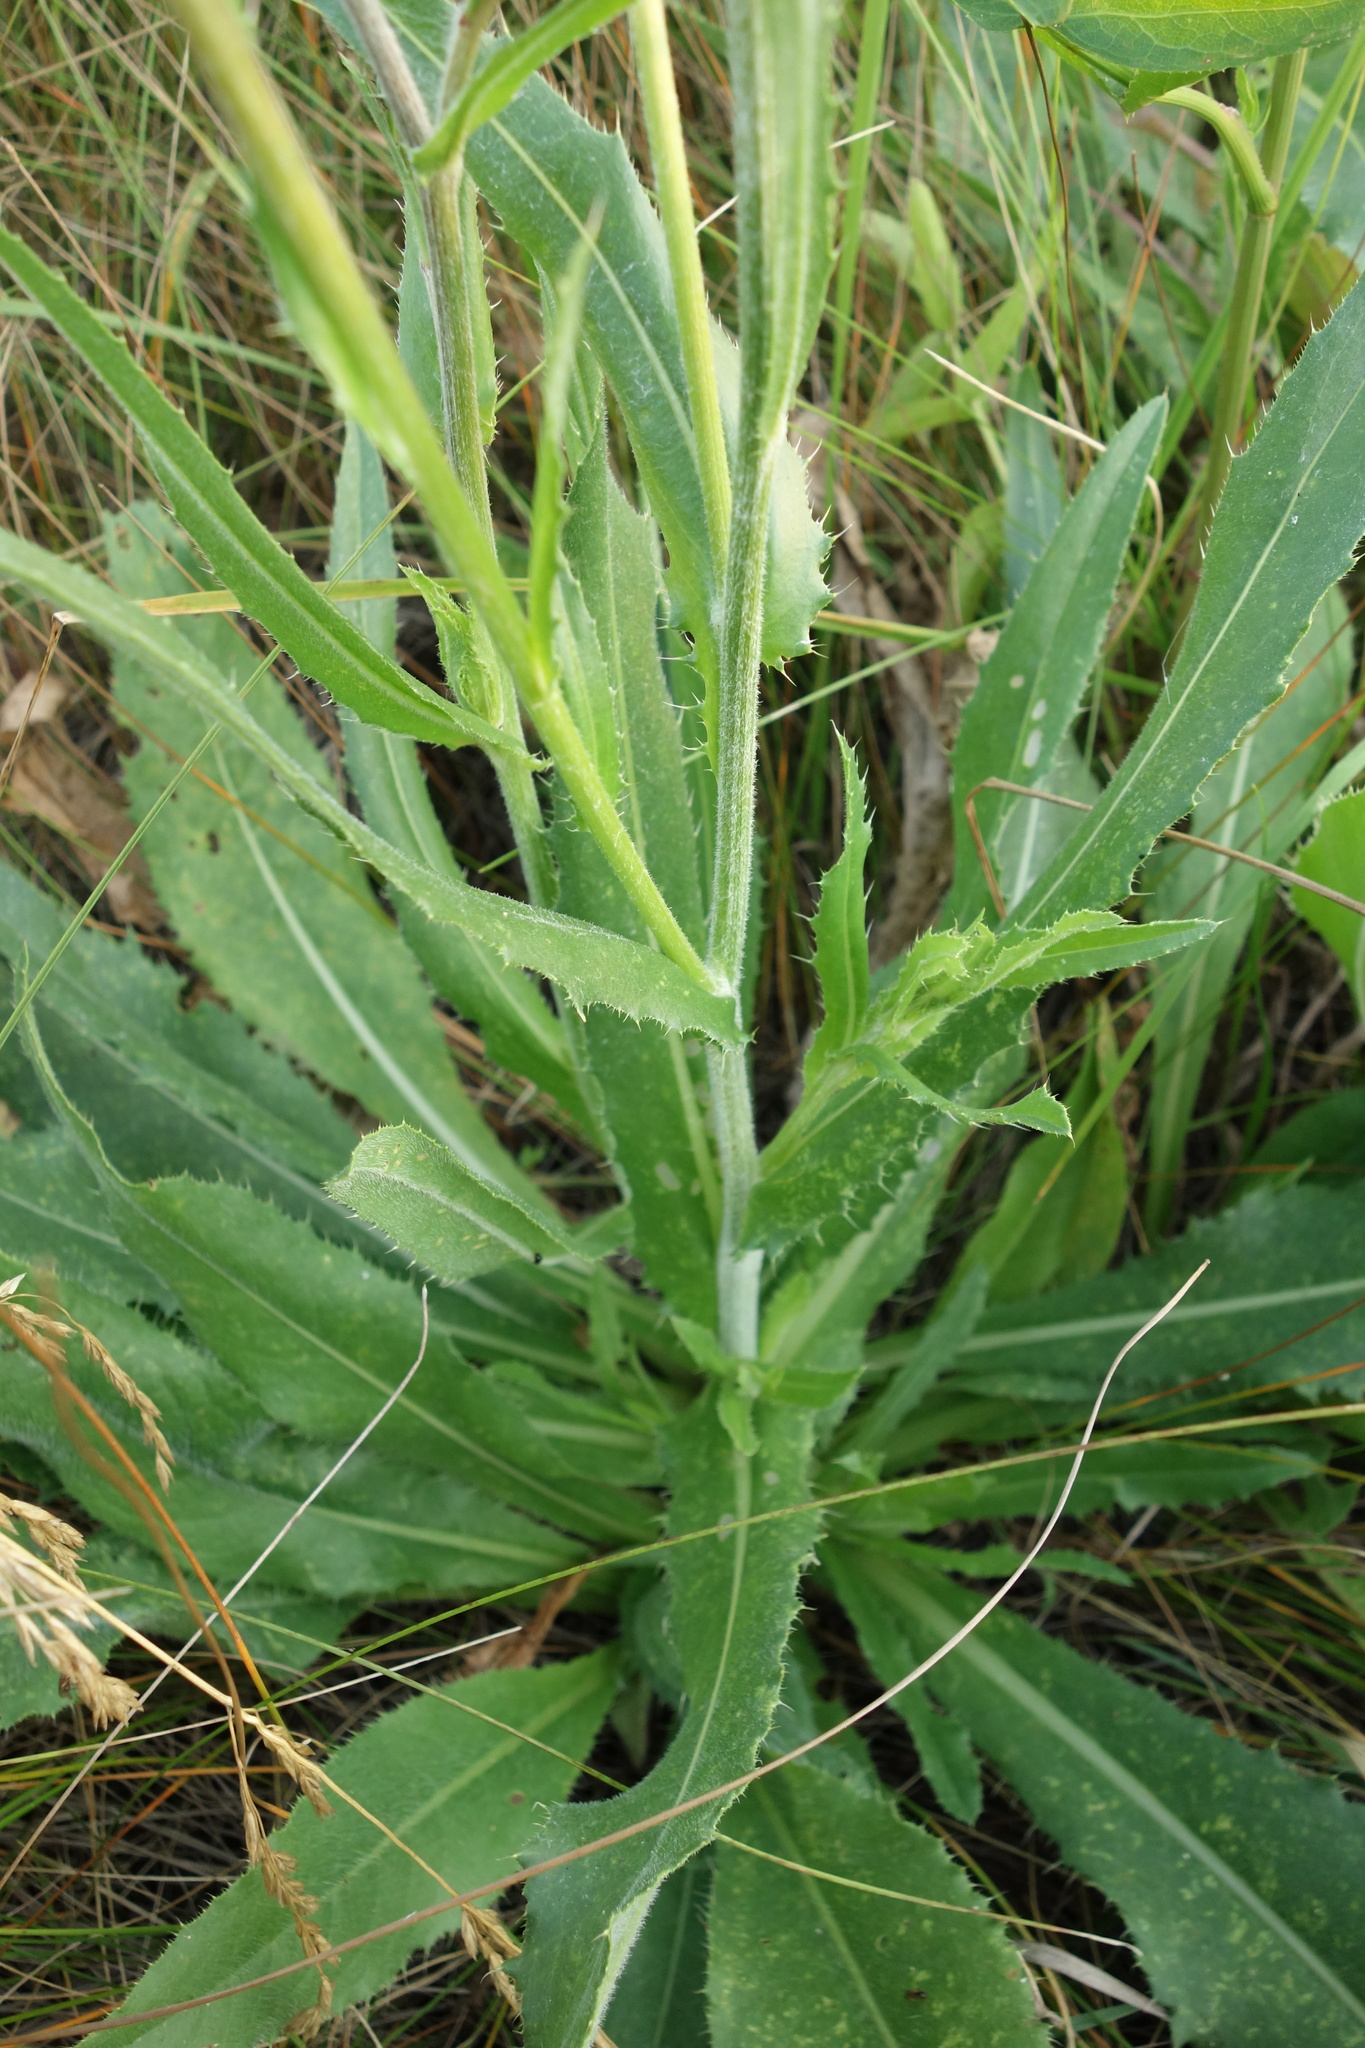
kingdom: Plantae
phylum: Tracheophyta
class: Magnoliopsida
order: Asterales
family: Asteraceae
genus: Cirsium
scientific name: Cirsium canum
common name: Queen anne's thistle
